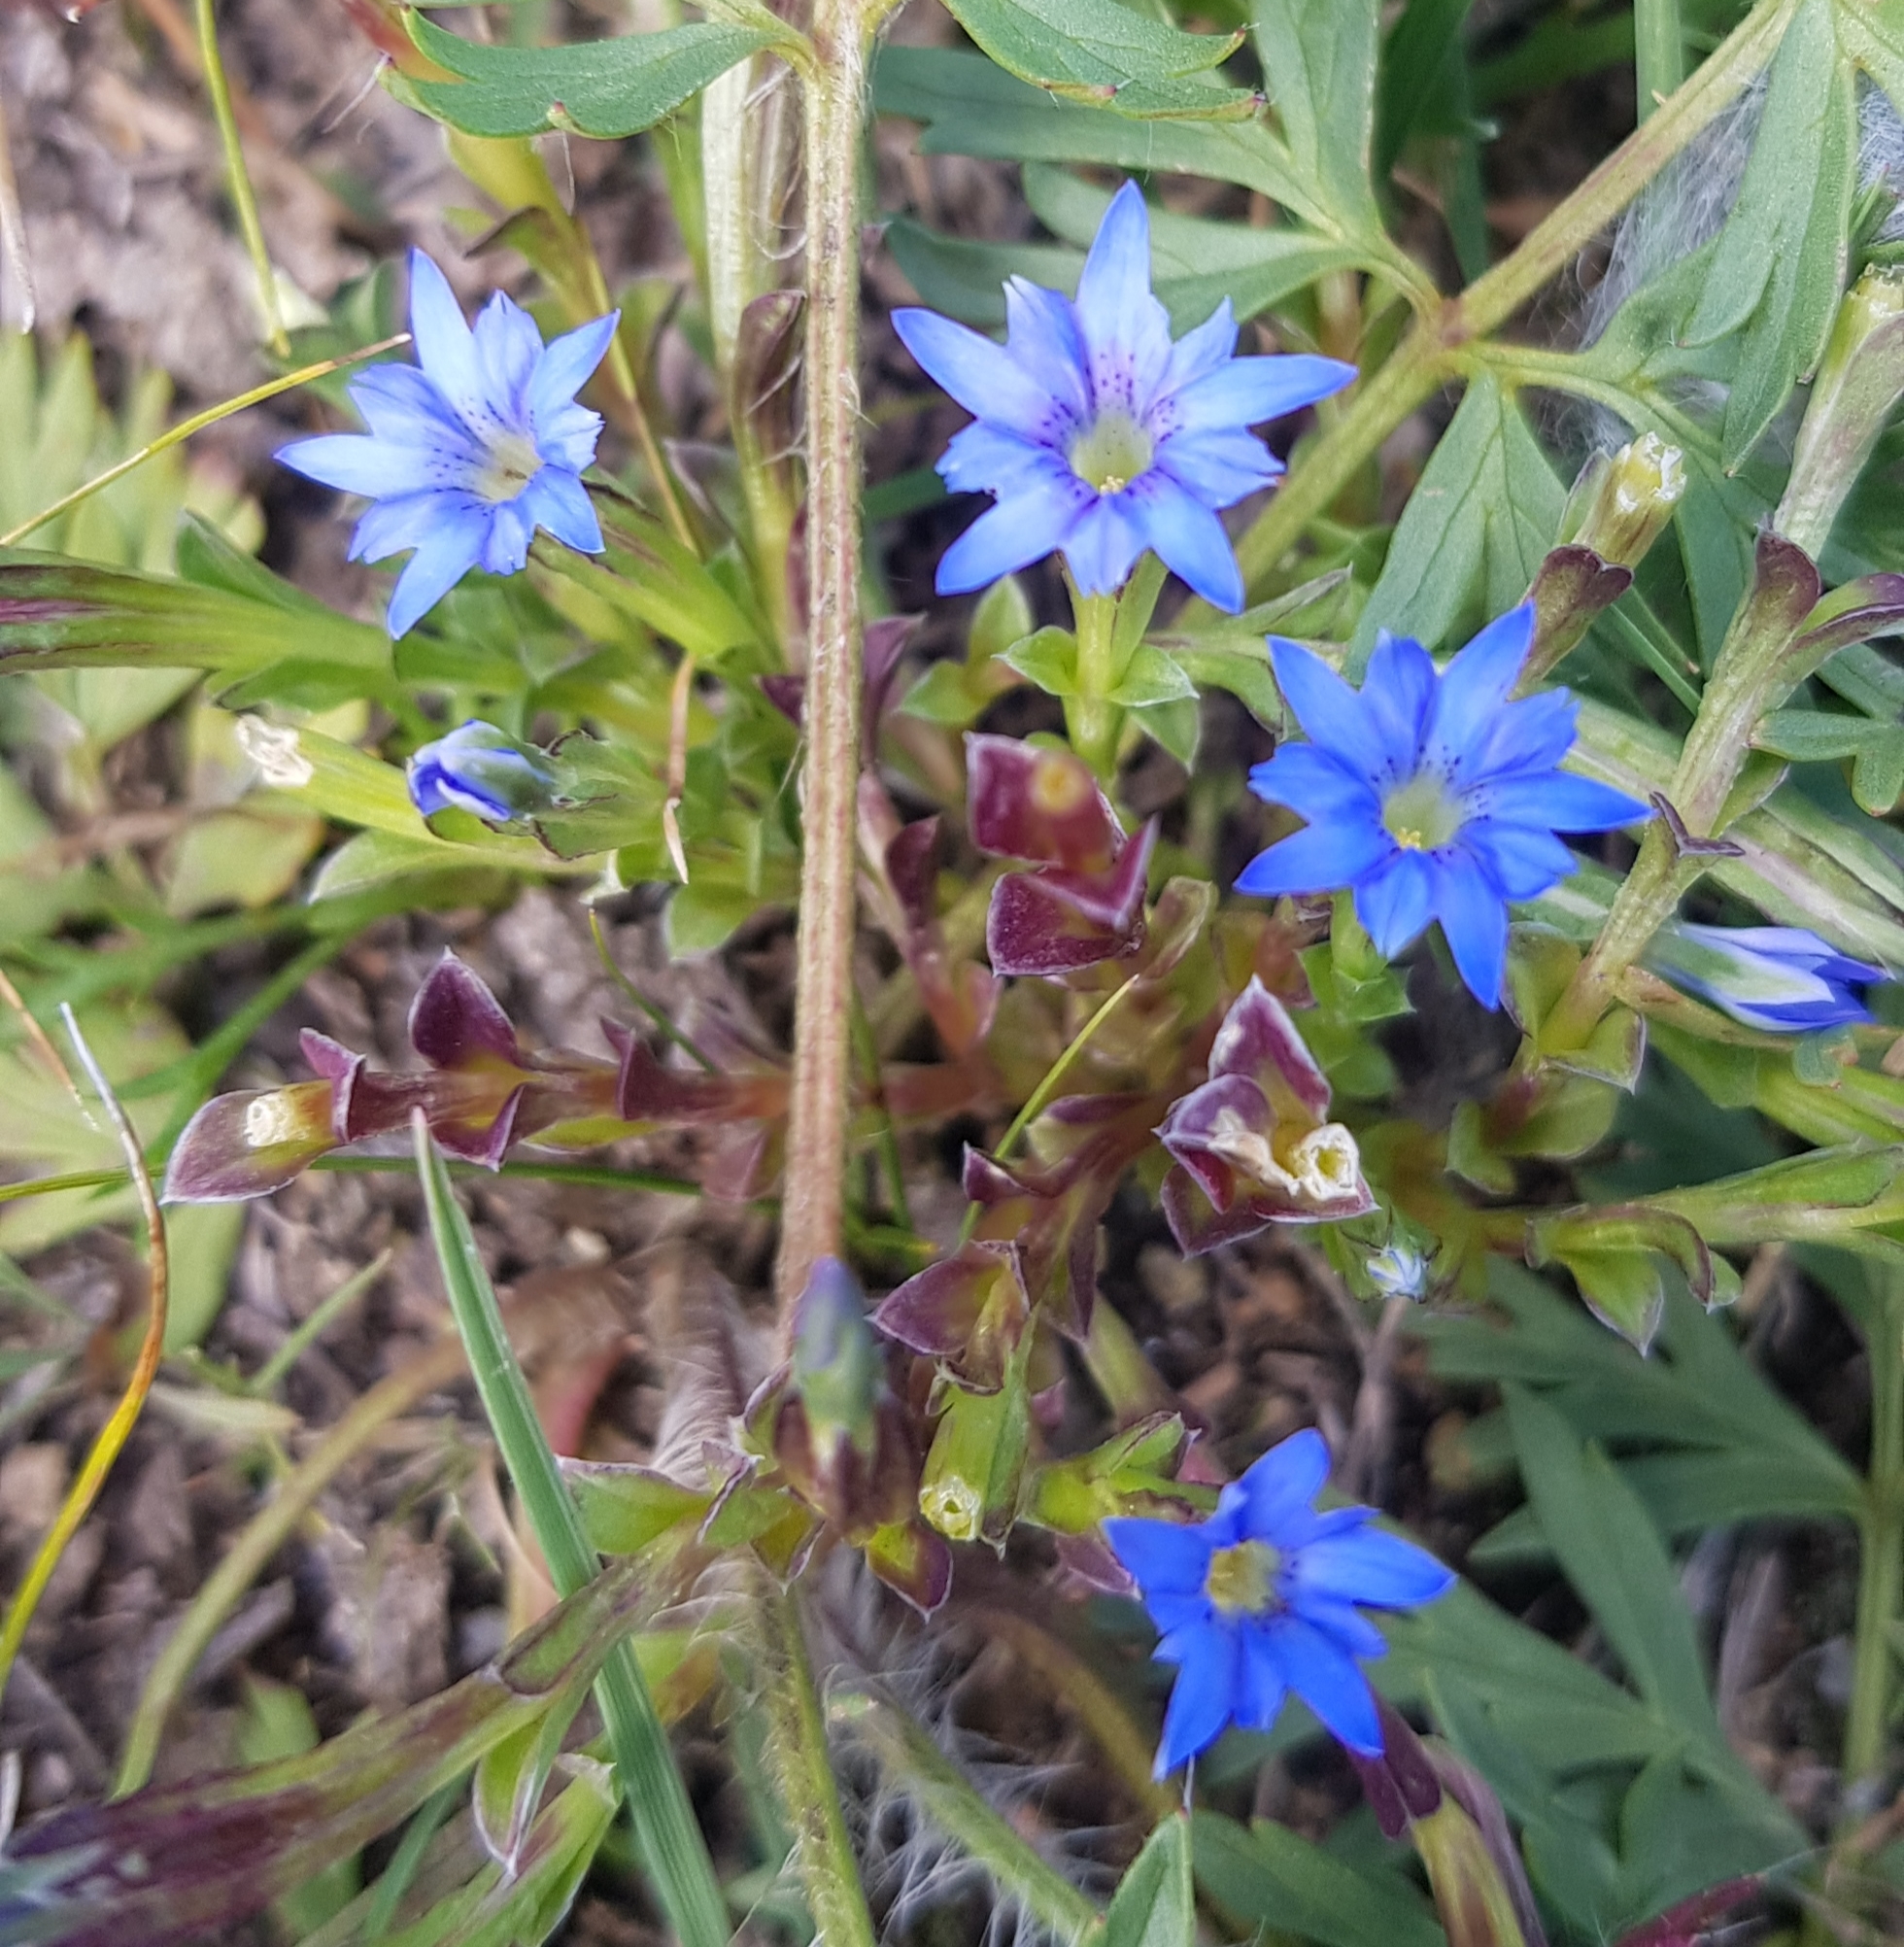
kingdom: Plantae
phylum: Tracheophyta
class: Magnoliopsida
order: Gentianales
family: Gentianaceae
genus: Gentiana
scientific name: Gentiana squarrosa
